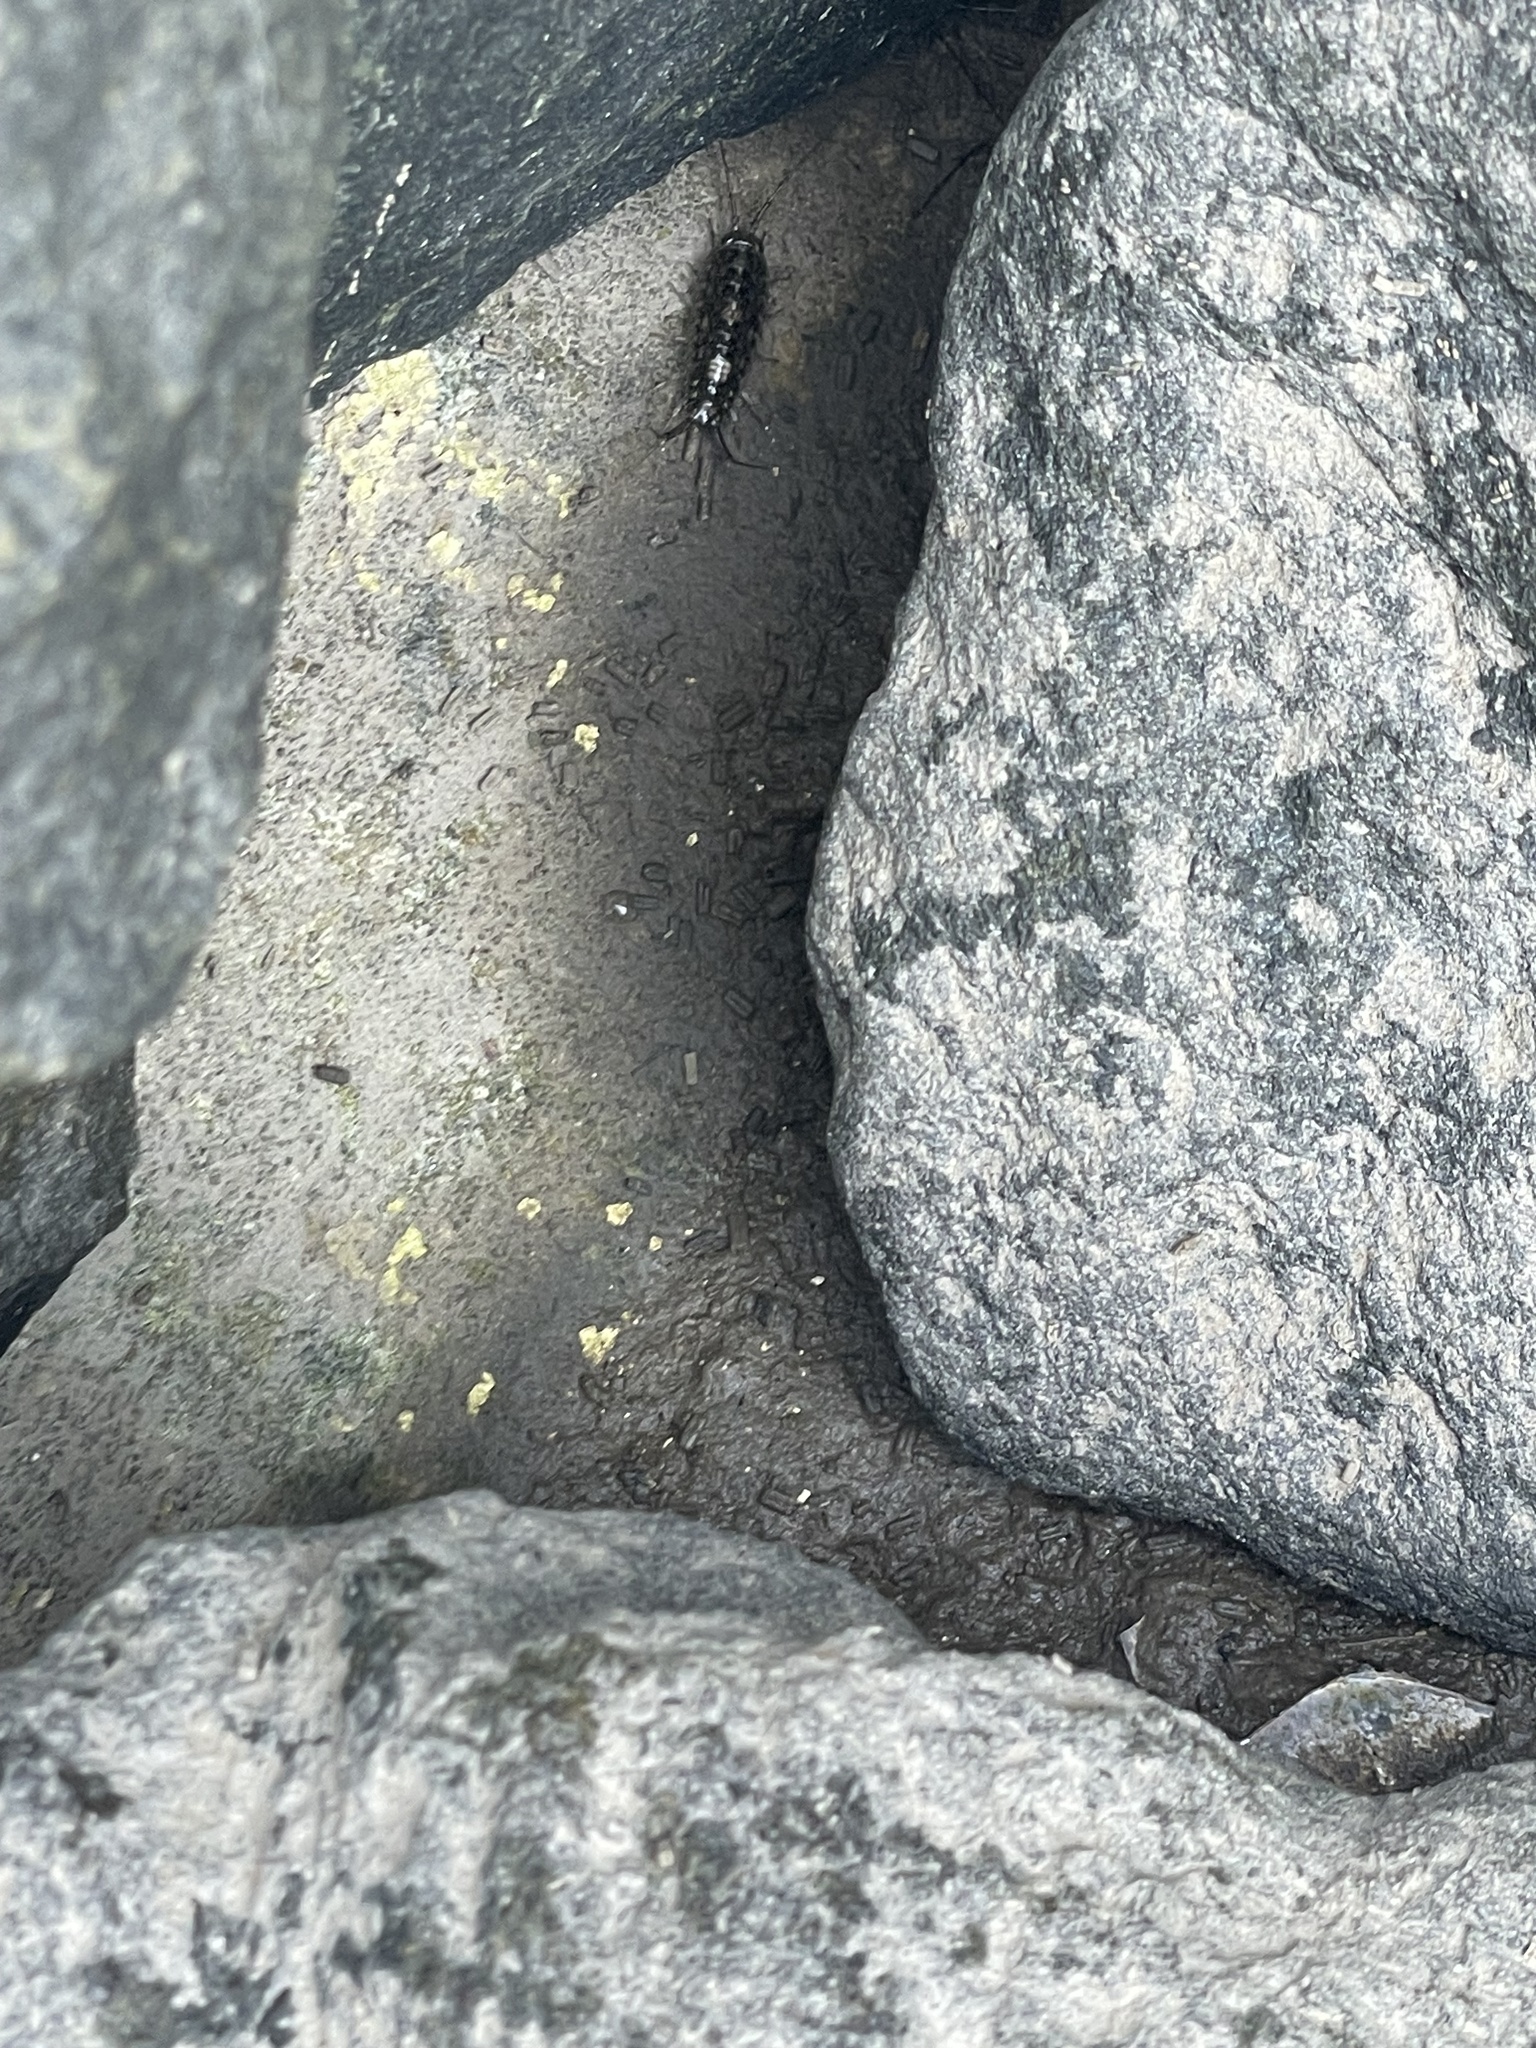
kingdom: Animalia
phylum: Arthropoda
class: Malacostraca
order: Isopoda
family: Ligiidae
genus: Ligia
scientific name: Ligia exotica
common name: Wharf roach
